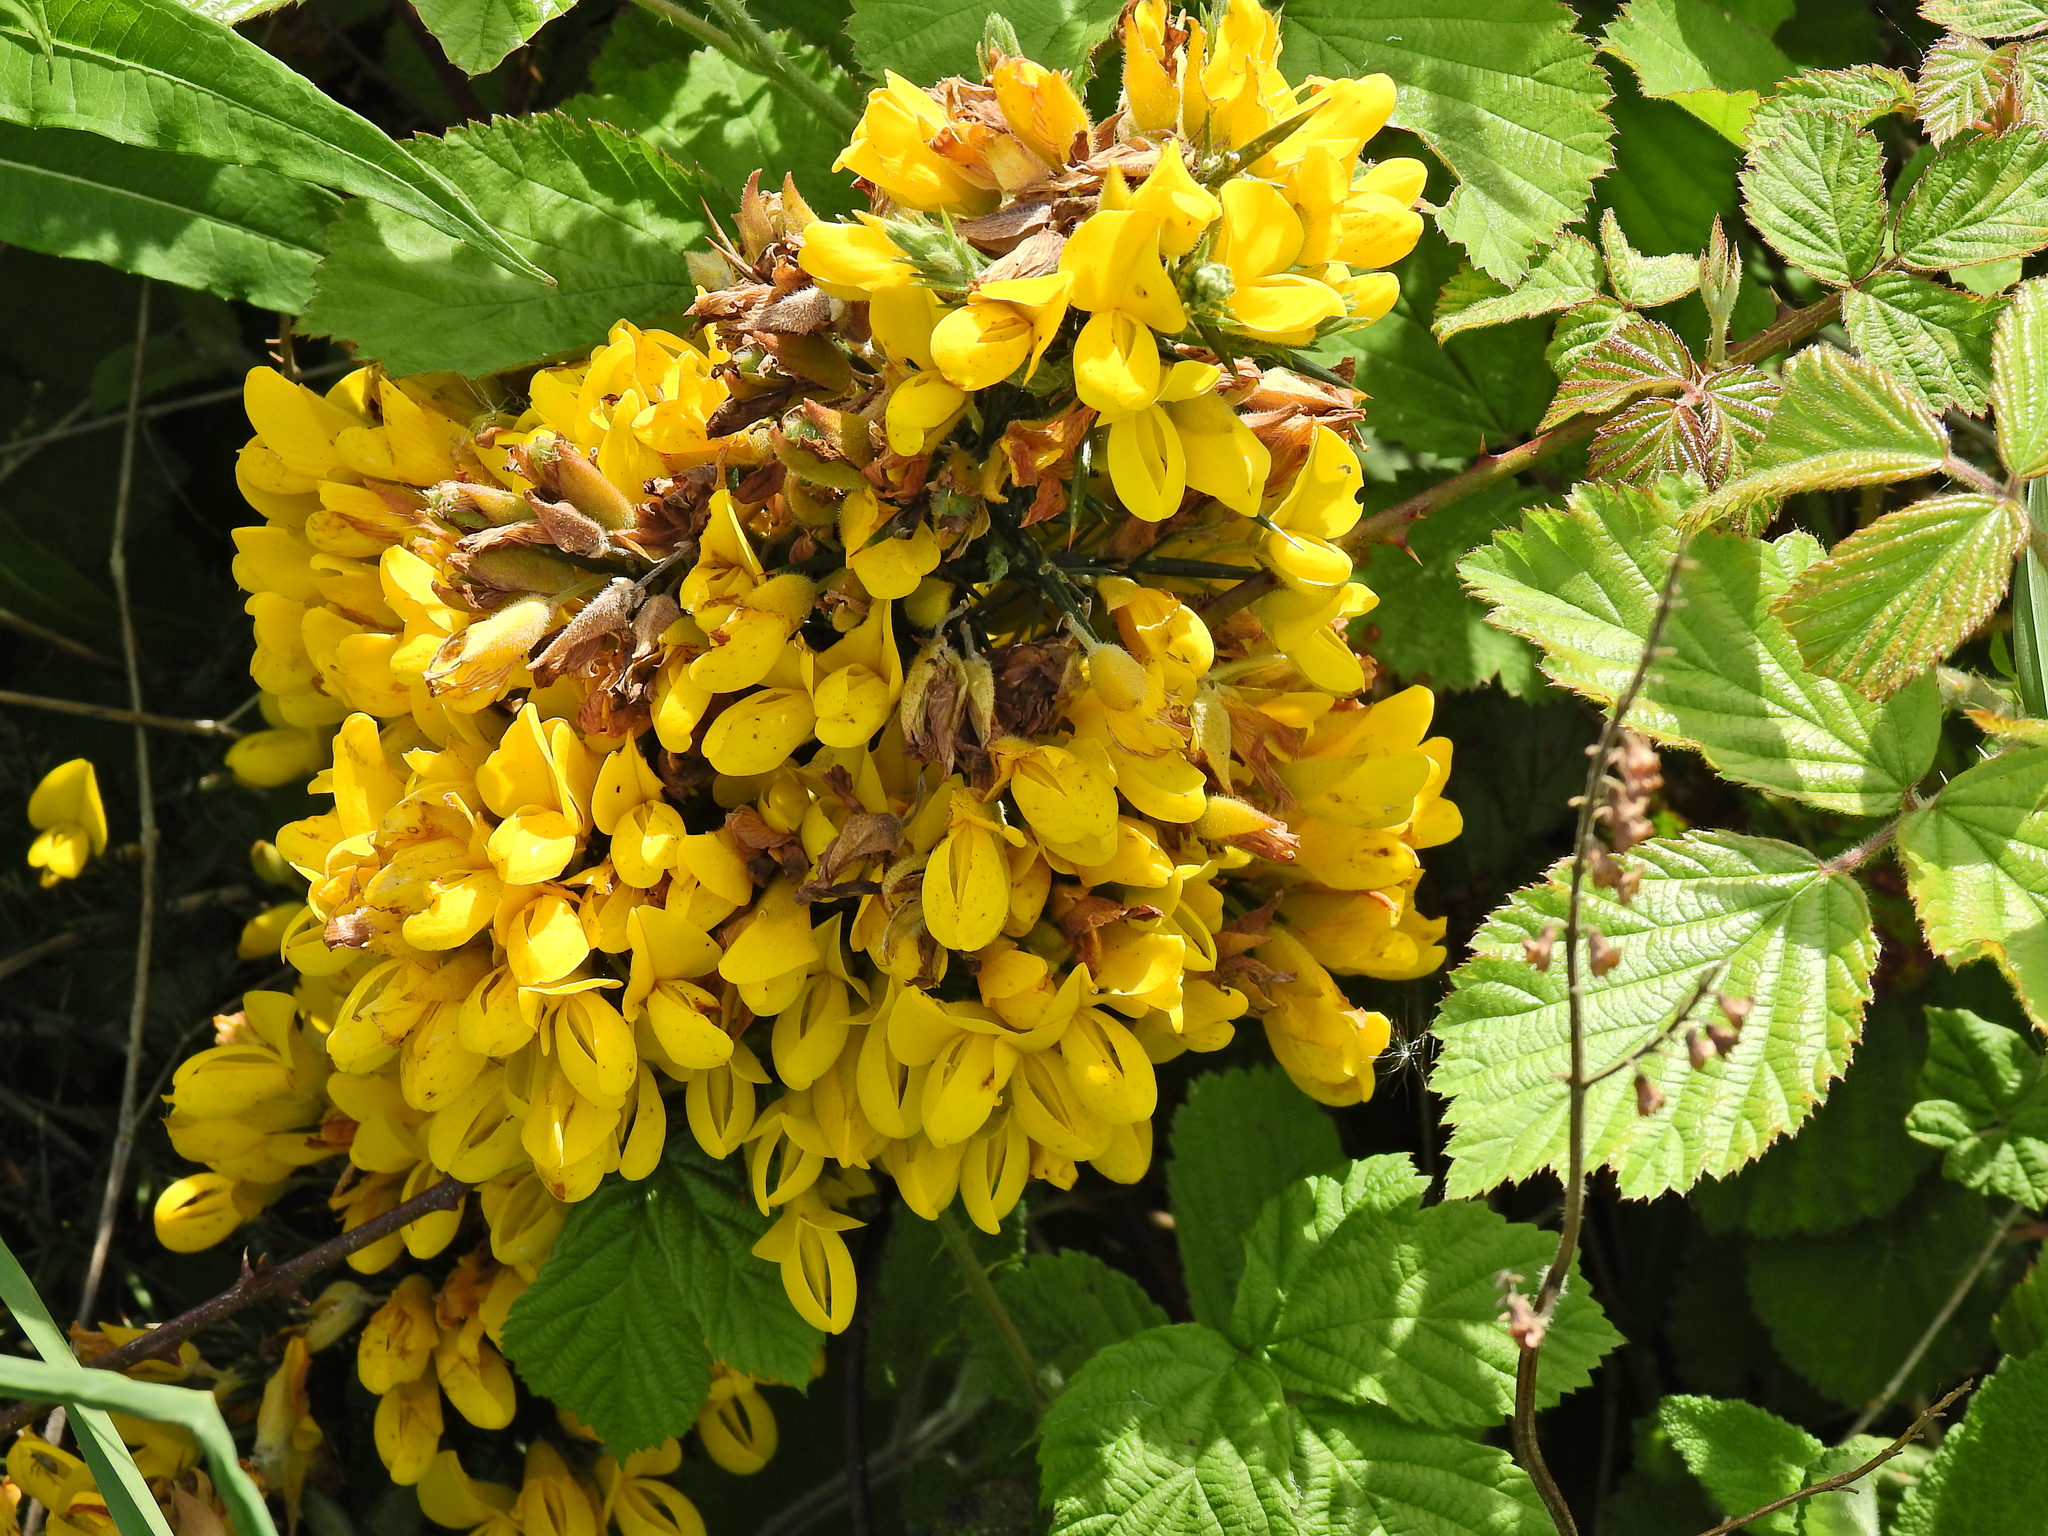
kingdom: Plantae
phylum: Tracheophyta
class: Magnoliopsida
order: Fabales
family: Fabaceae
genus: Ulex
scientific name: Ulex europaeus
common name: Common gorse
